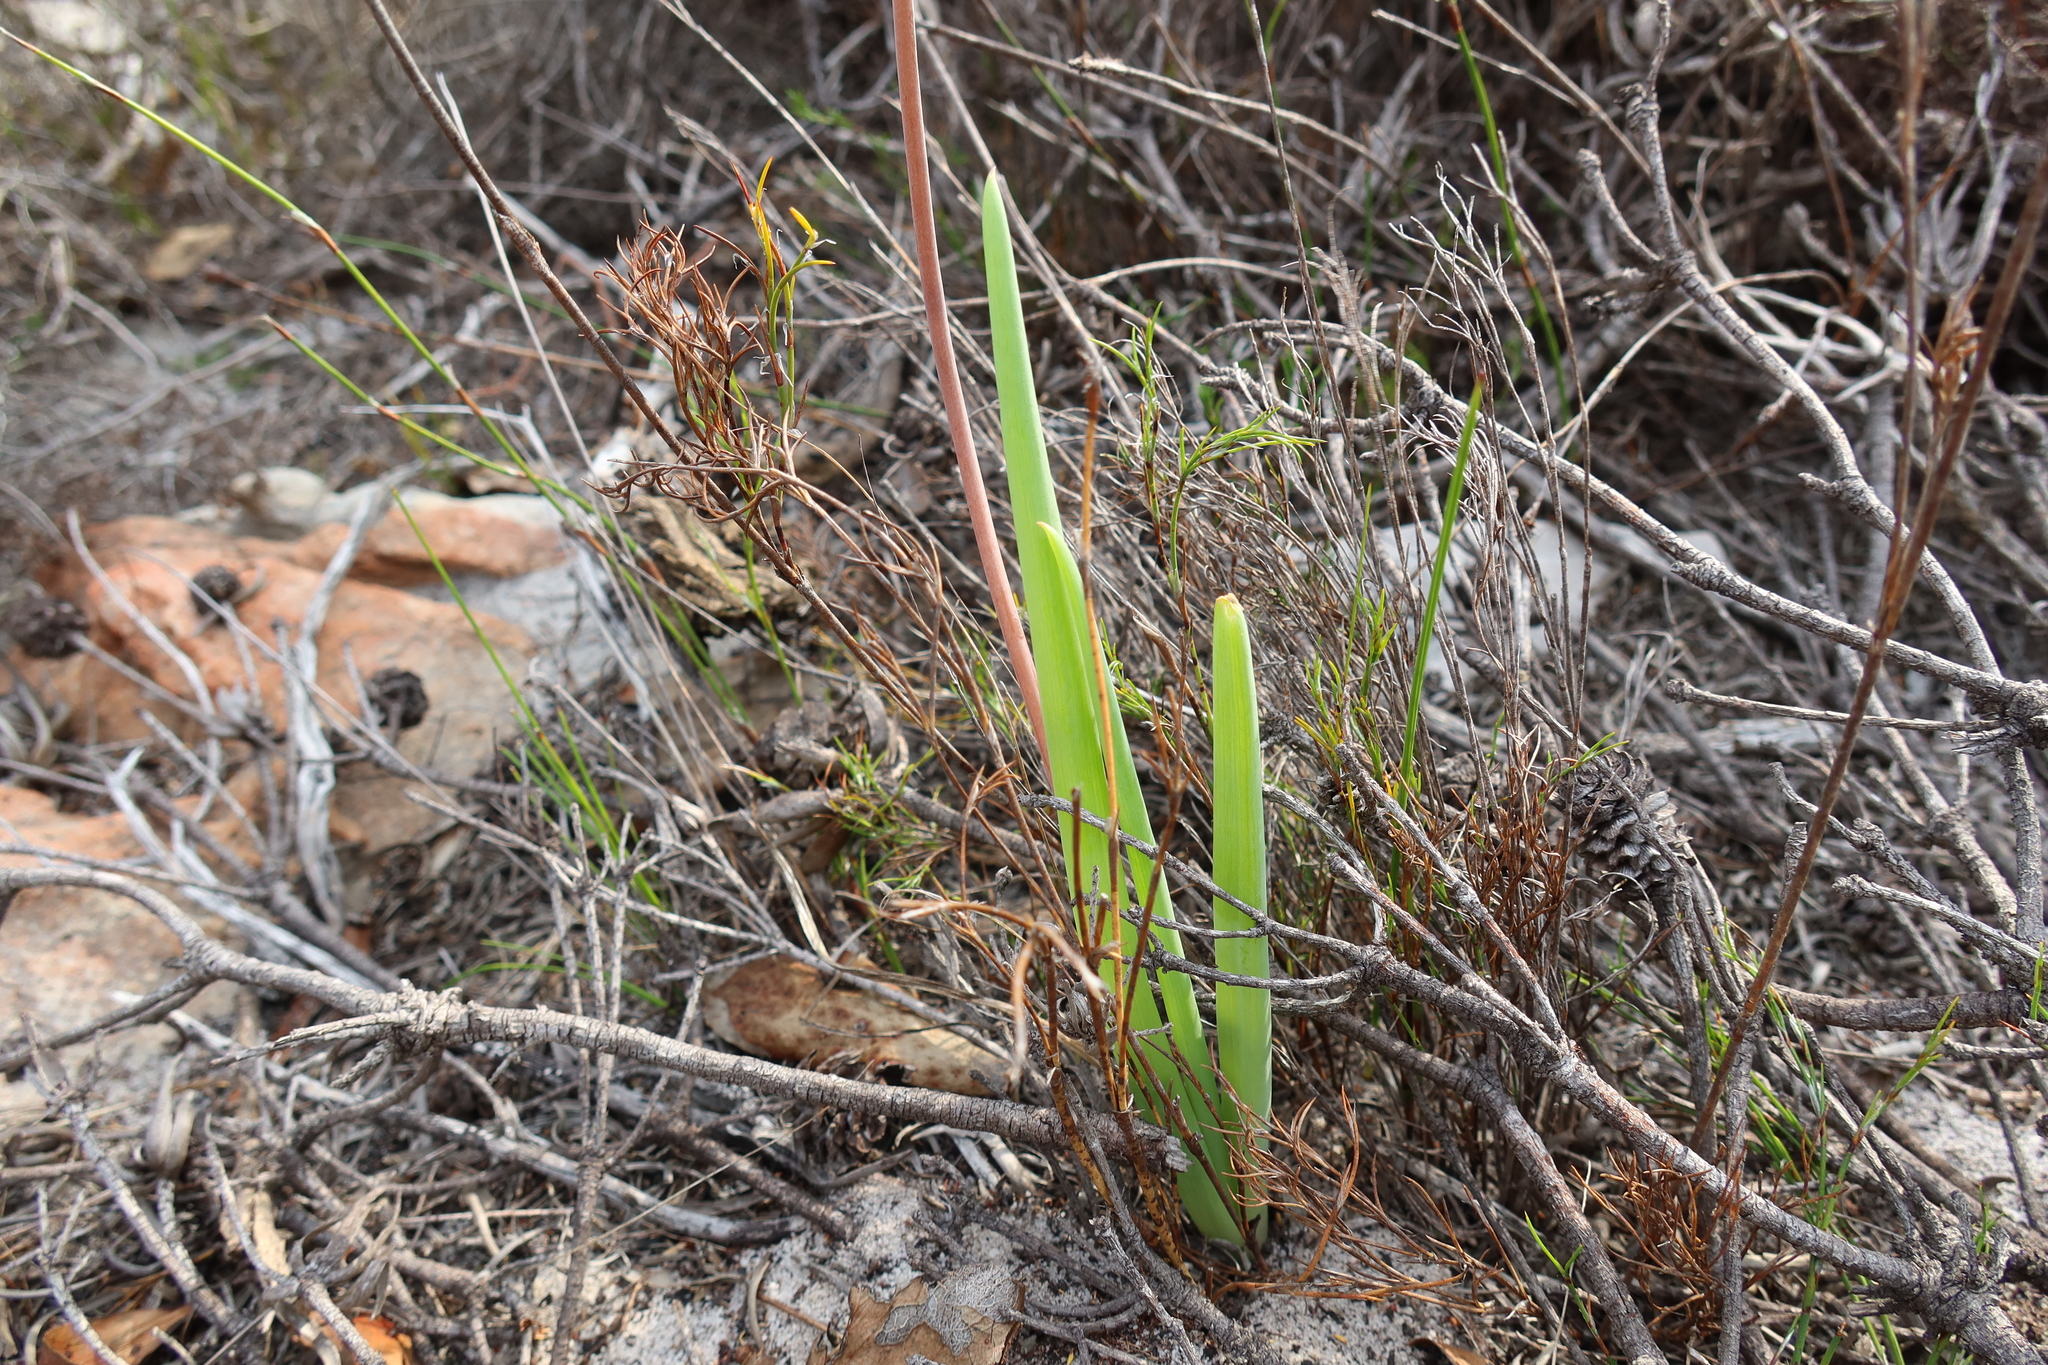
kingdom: Plantae
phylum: Tracheophyta
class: Liliopsida
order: Asparagales
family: Asphodelaceae
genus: Bulbine
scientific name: Bulbine praemorsa
